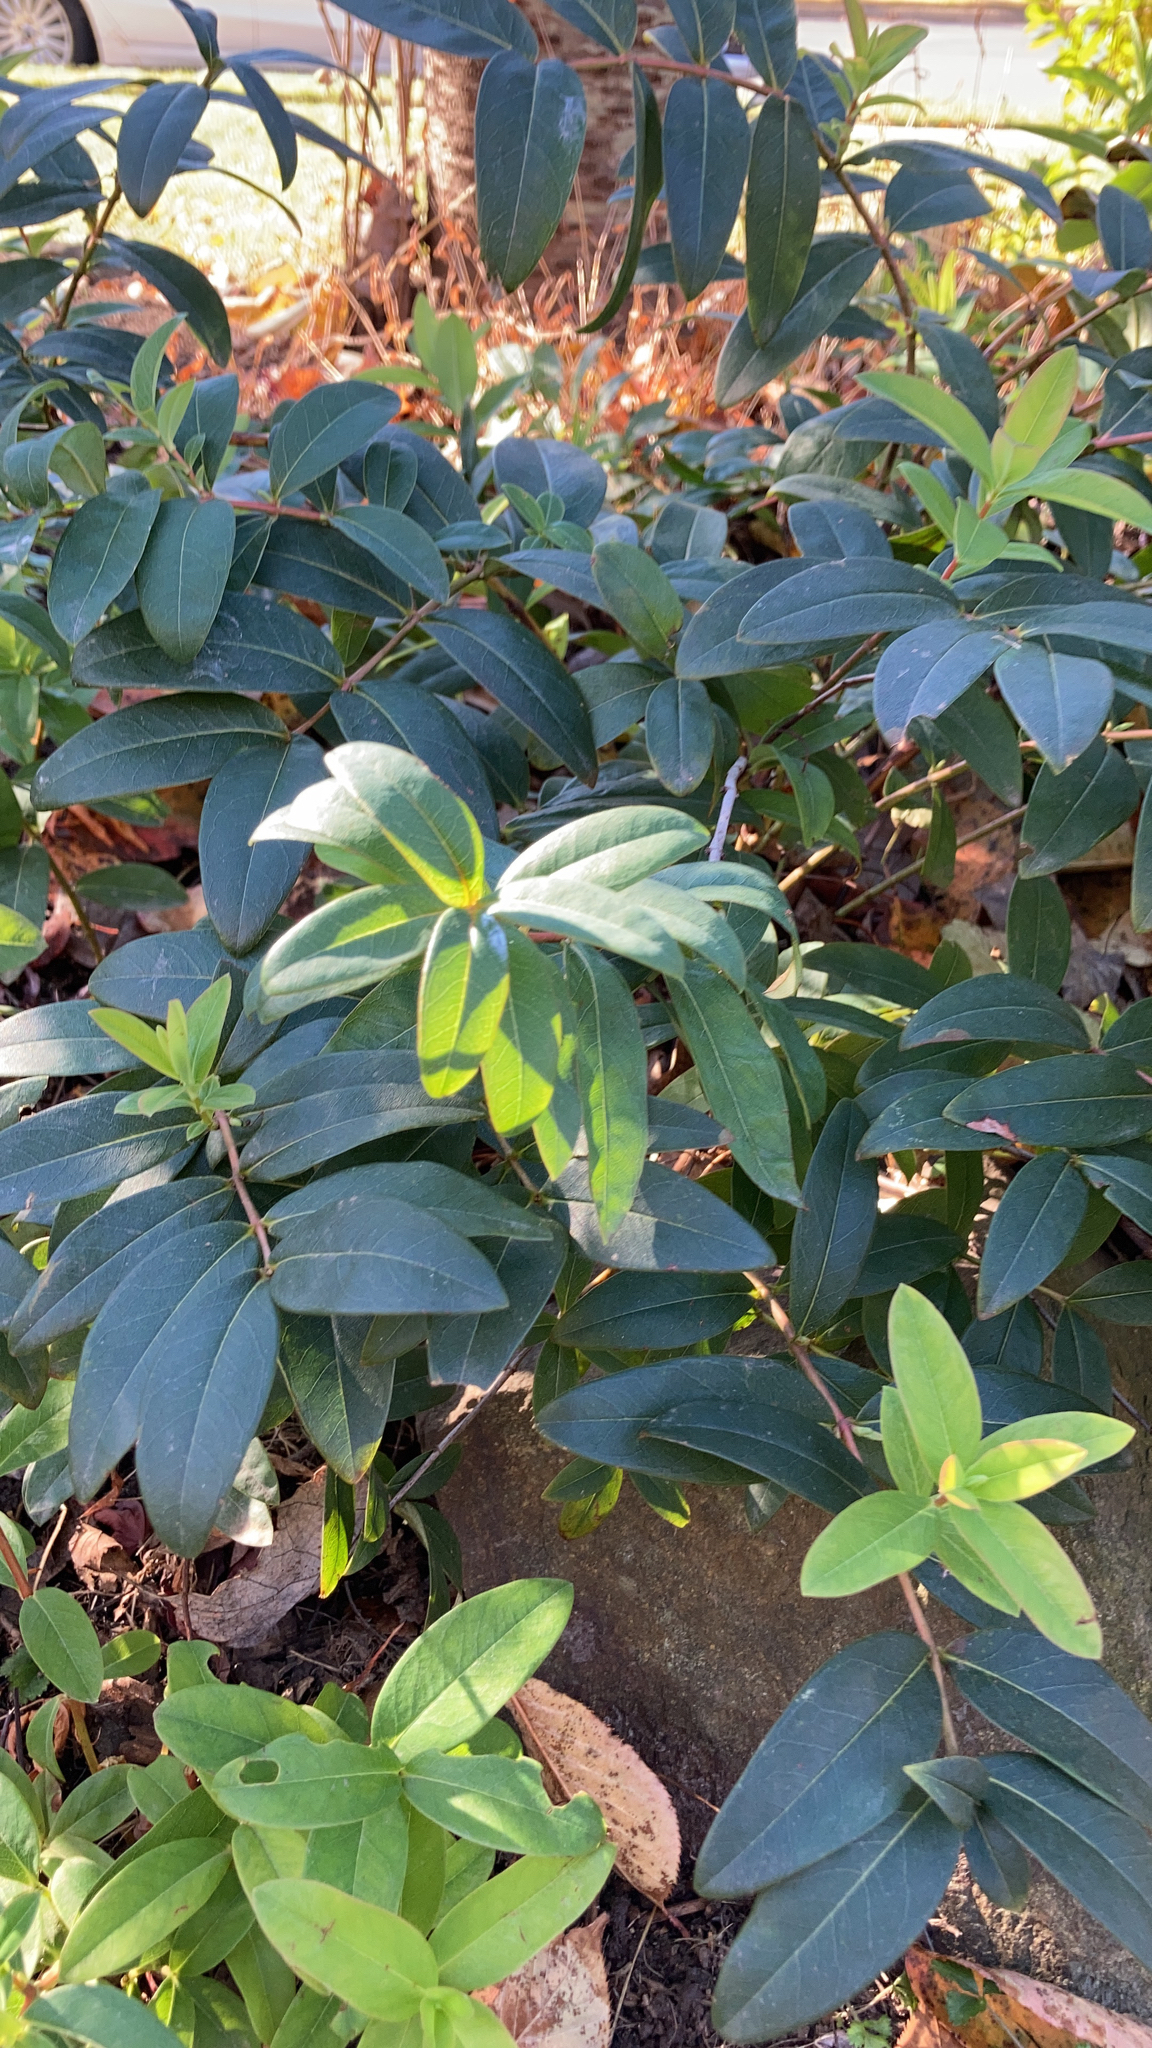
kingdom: Plantae
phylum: Tracheophyta
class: Magnoliopsida
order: Malpighiales
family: Hypericaceae
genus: Hypericum
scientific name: Hypericum calycinum
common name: Rose-of-sharon
